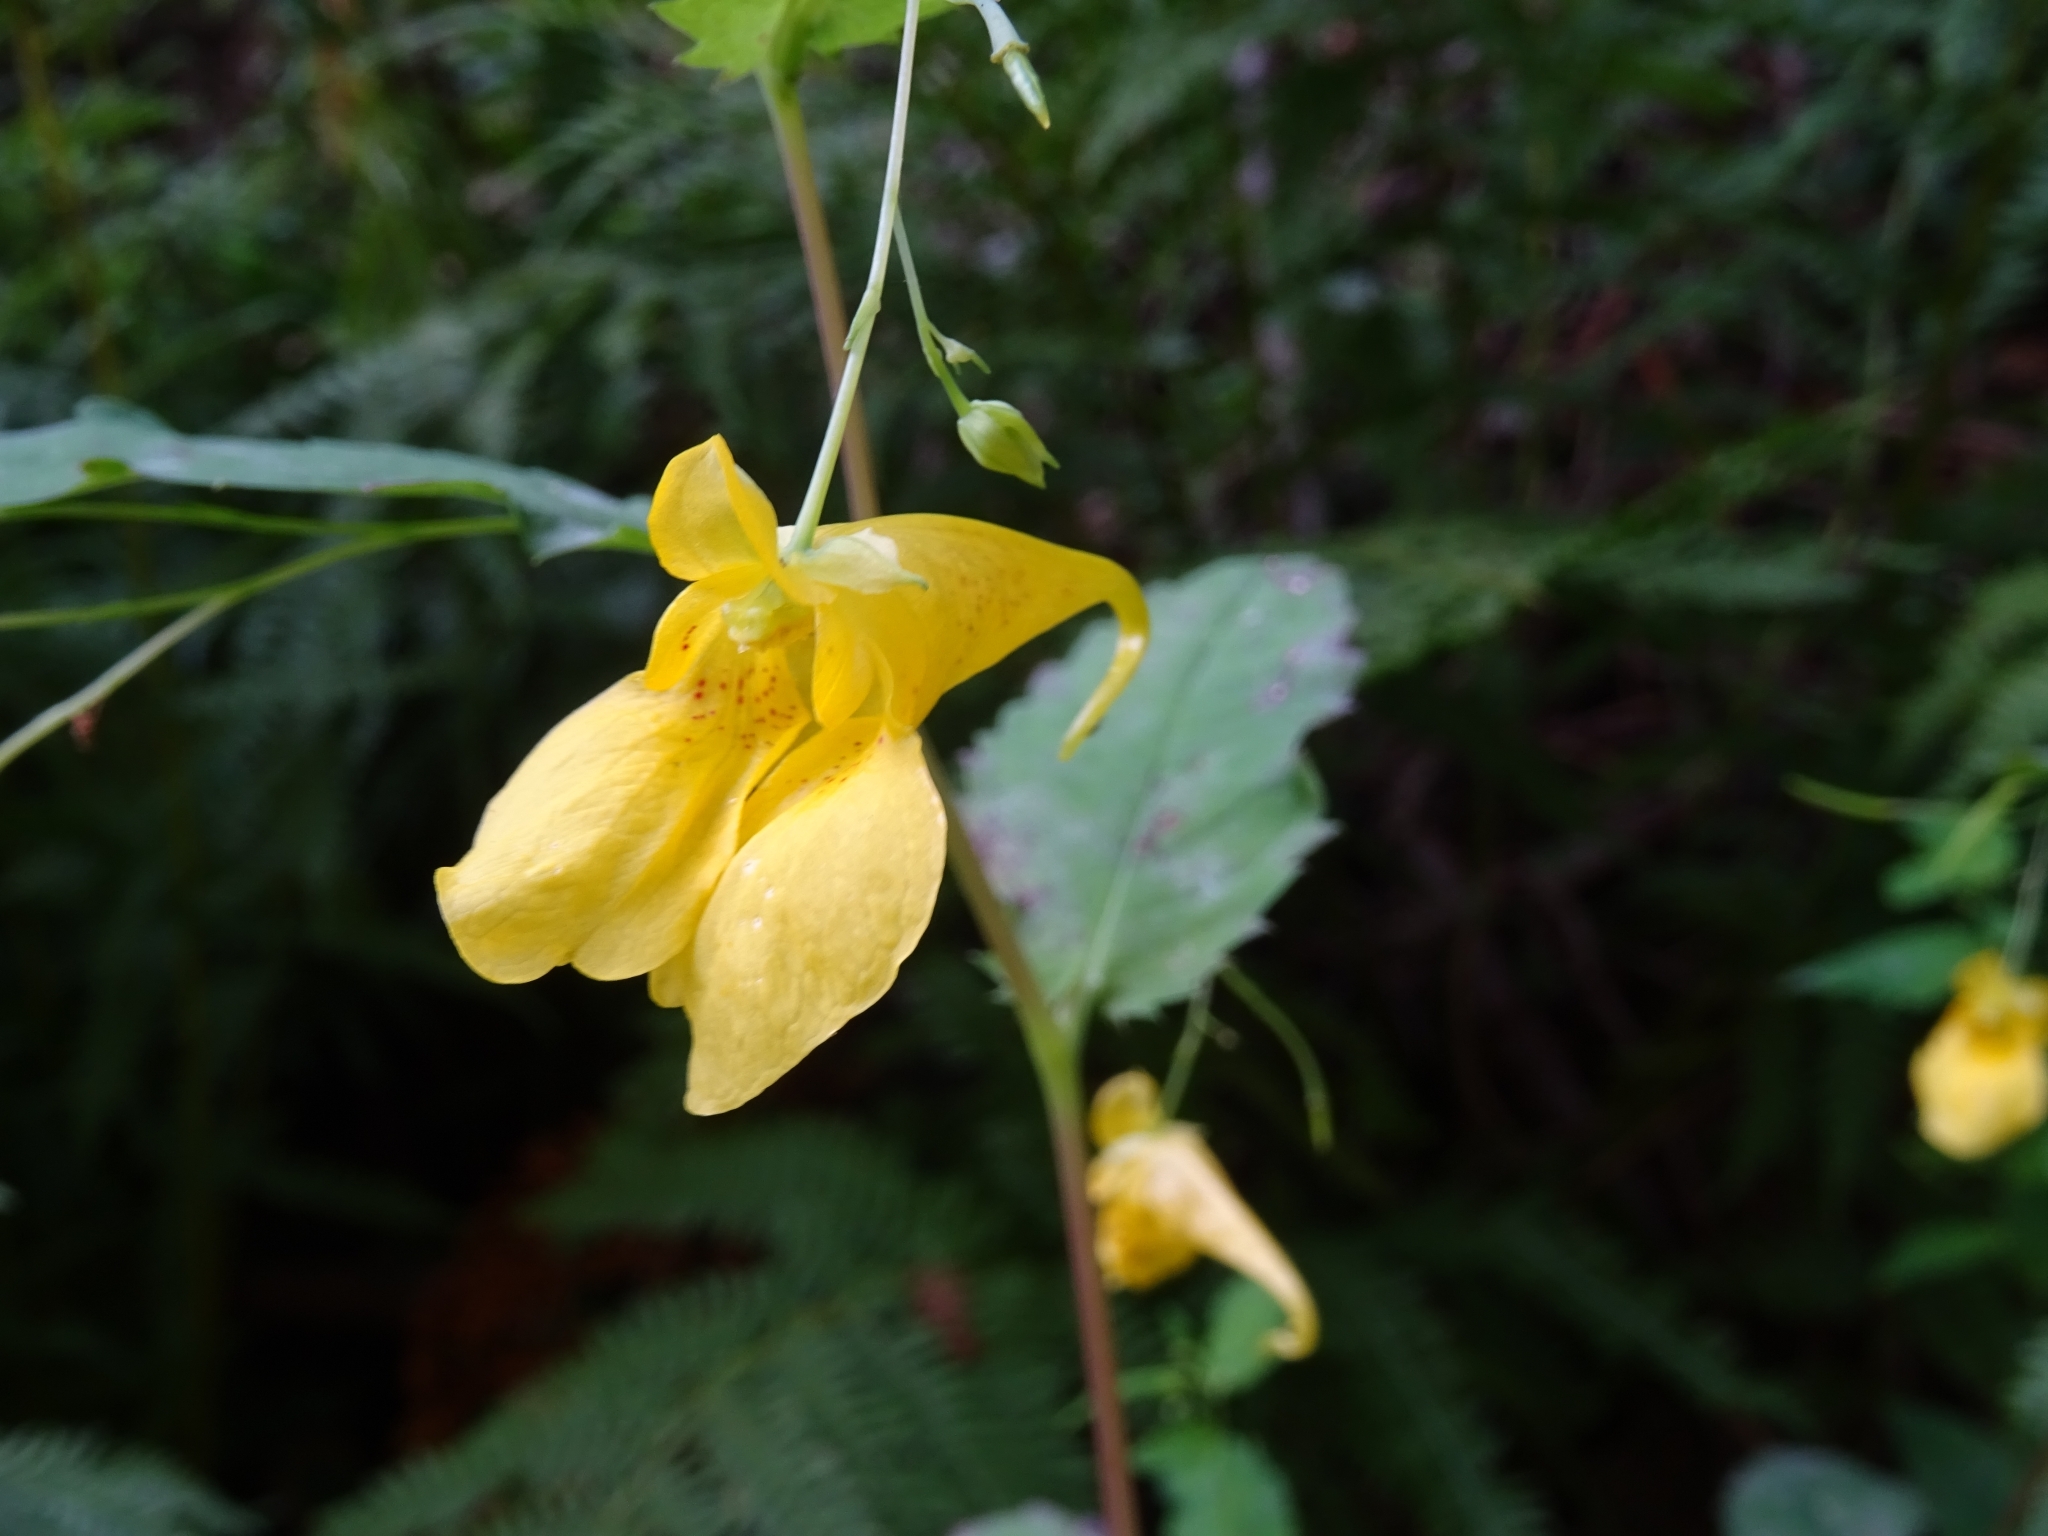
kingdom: Plantae
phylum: Tracheophyta
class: Magnoliopsida
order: Ericales
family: Balsaminaceae
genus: Impatiens
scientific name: Impatiens noli-tangere
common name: Touch-me-not balsam
